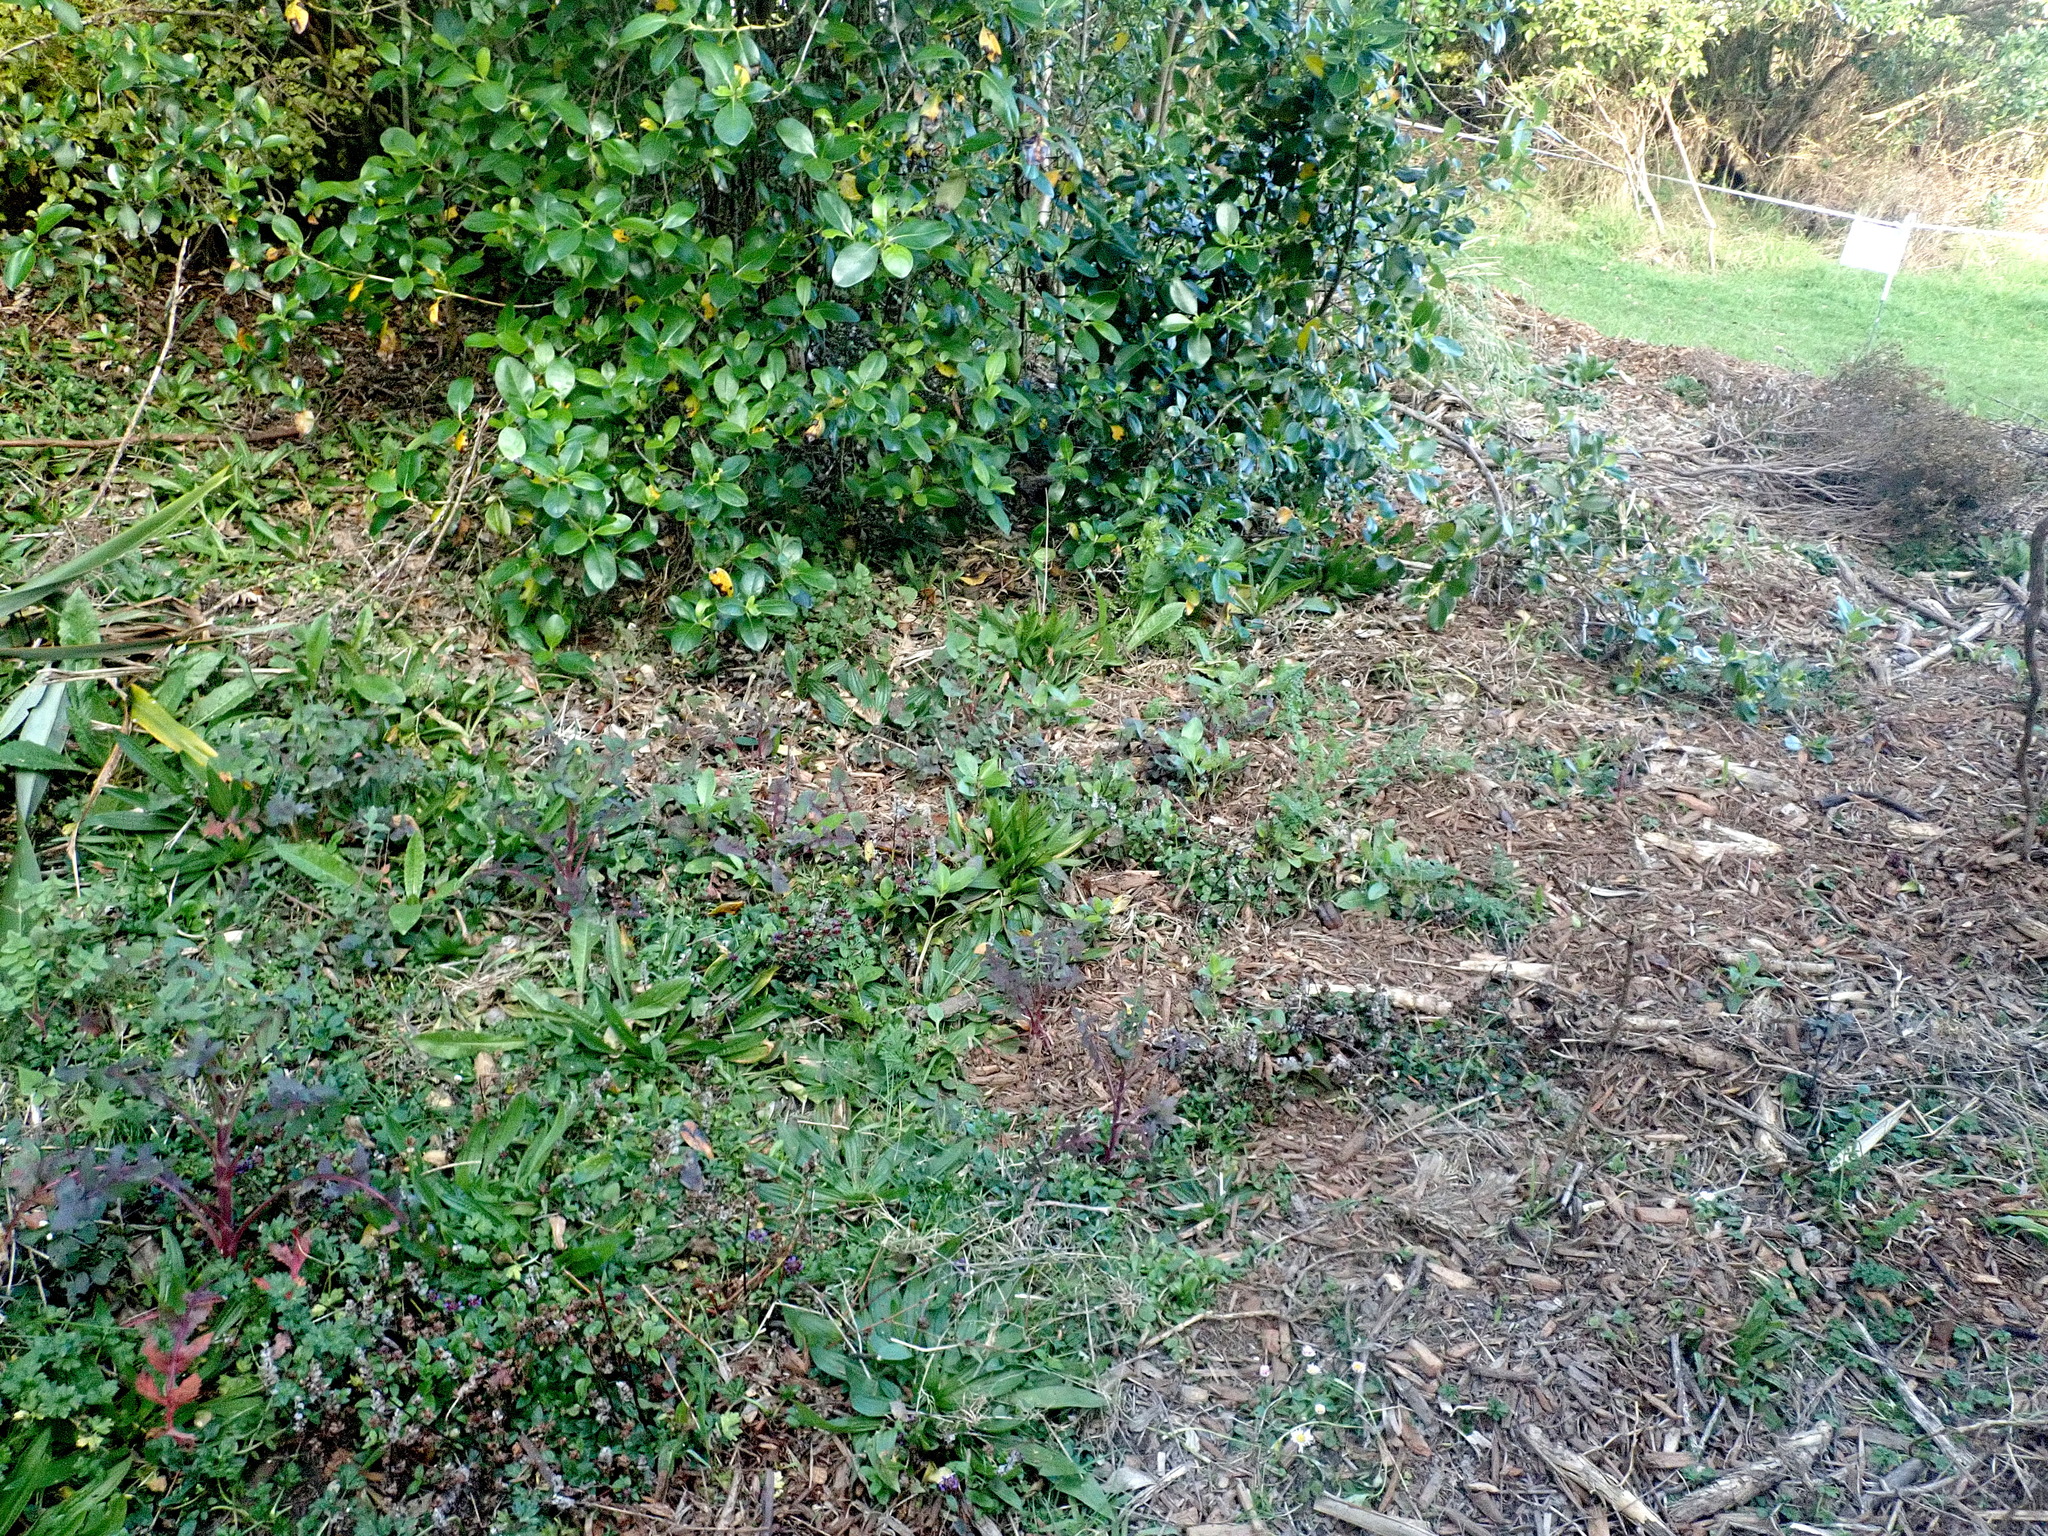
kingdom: Plantae
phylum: Tracheophyta
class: Magnoliopsida
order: Gentianales
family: Rubiaceae
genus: Coprosma
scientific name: Coprosma robusta
